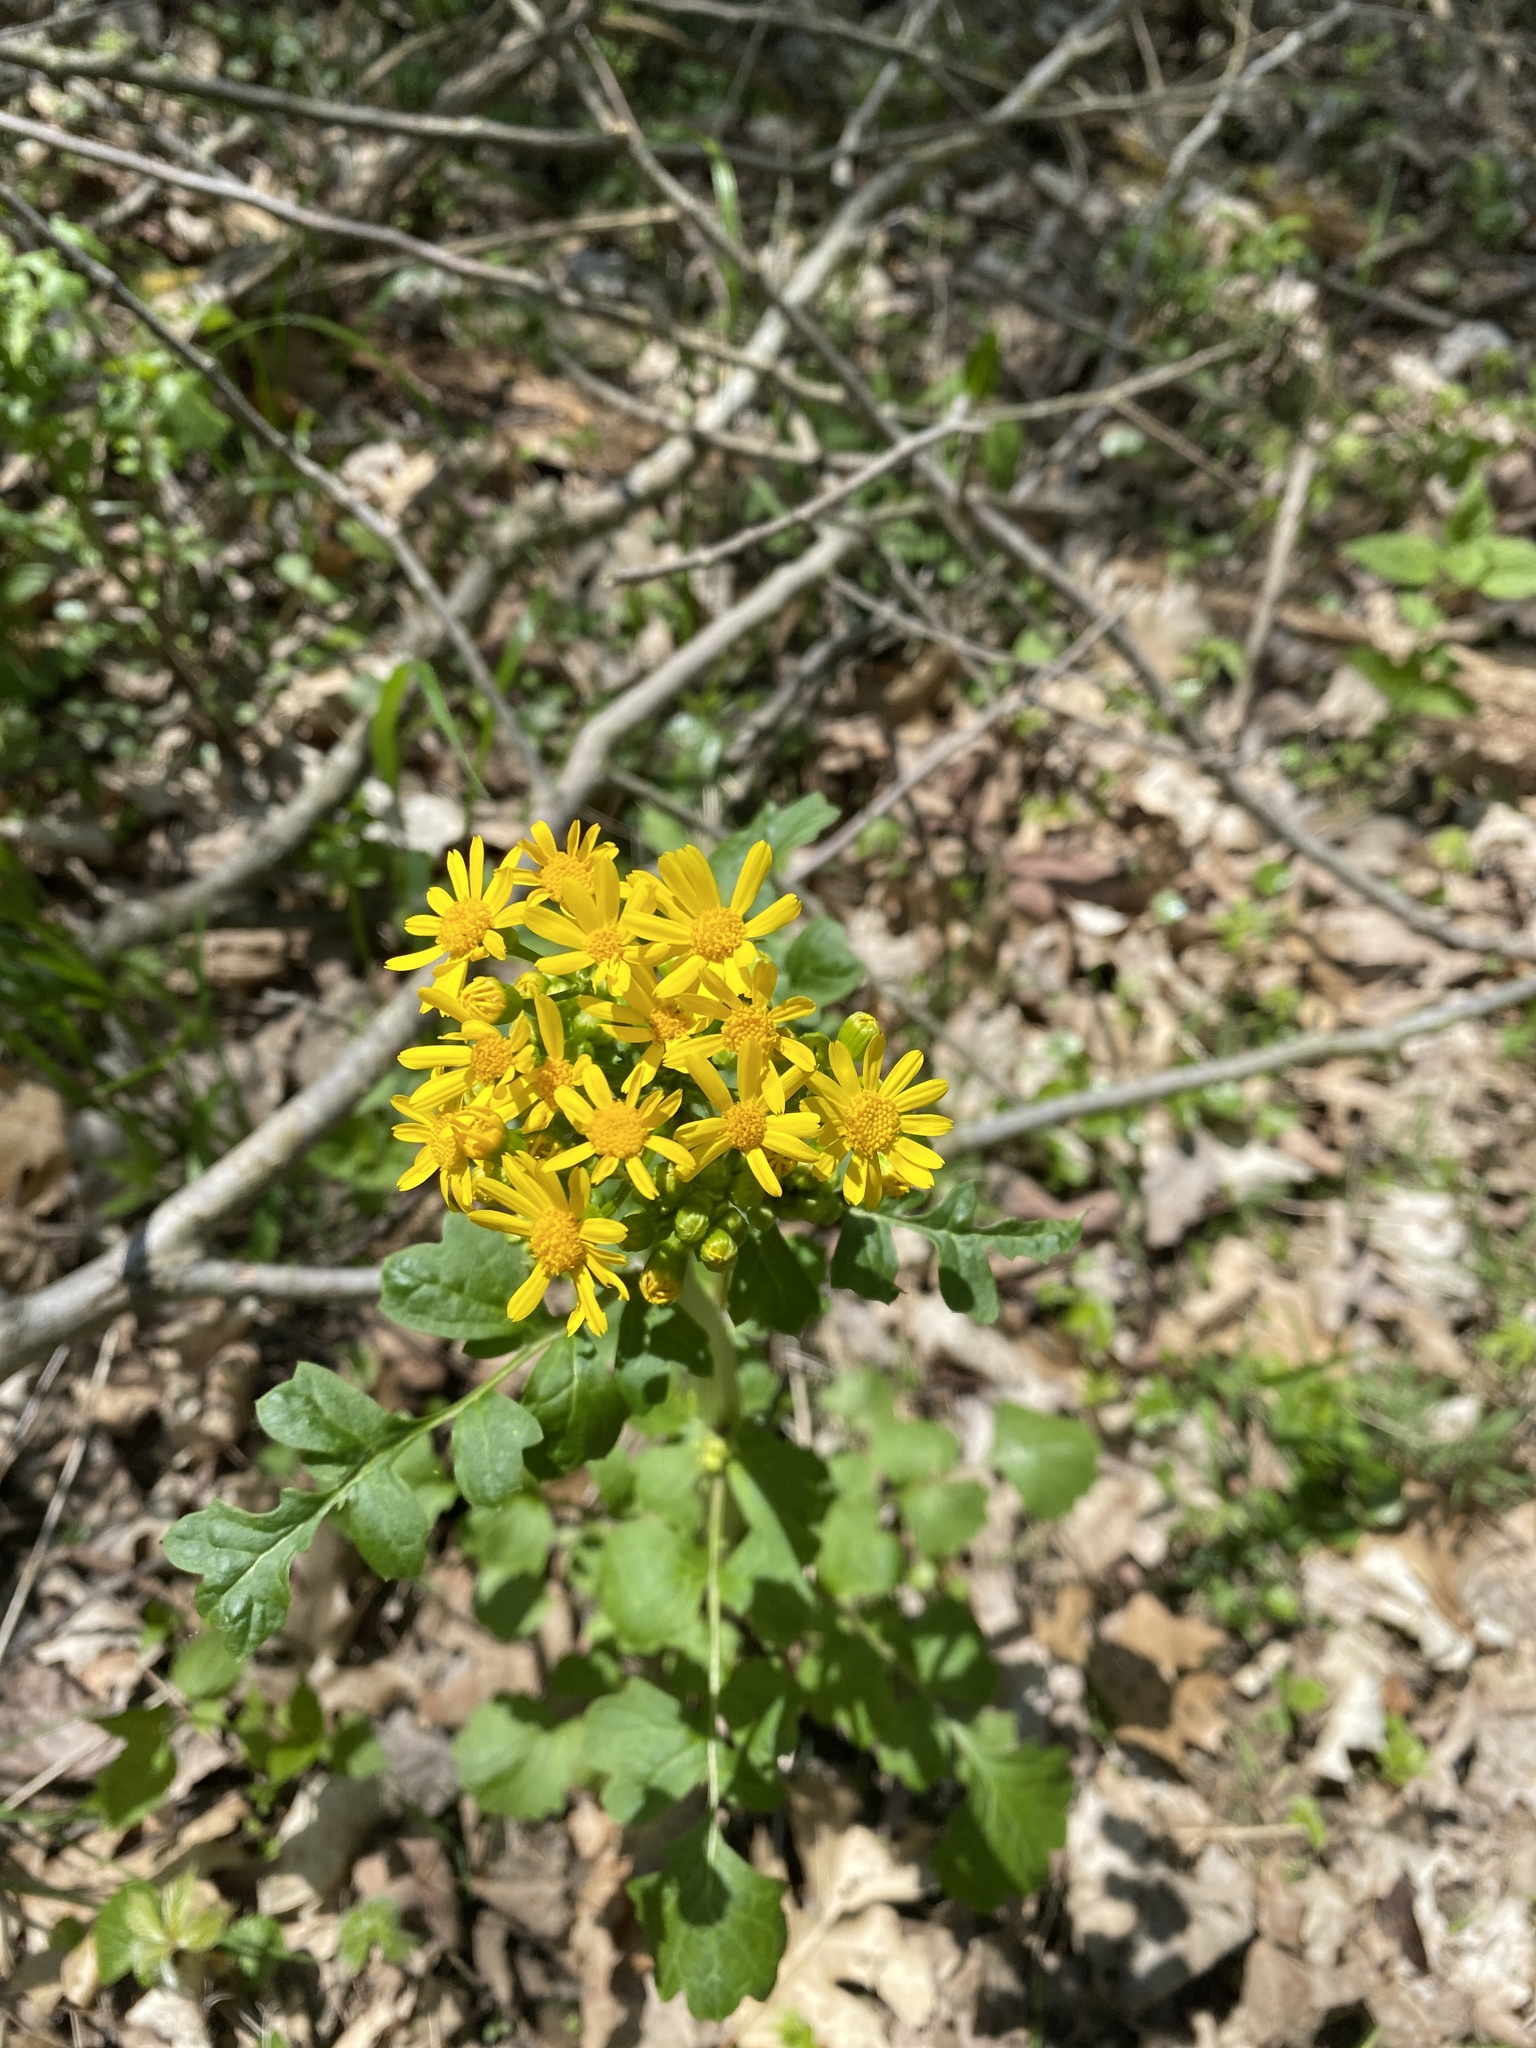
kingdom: Plantae
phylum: Tracheophyta
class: Magnoliopsida
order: Asterales
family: Asteraceae
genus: Packera
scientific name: Packera glabella
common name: Butterweed
